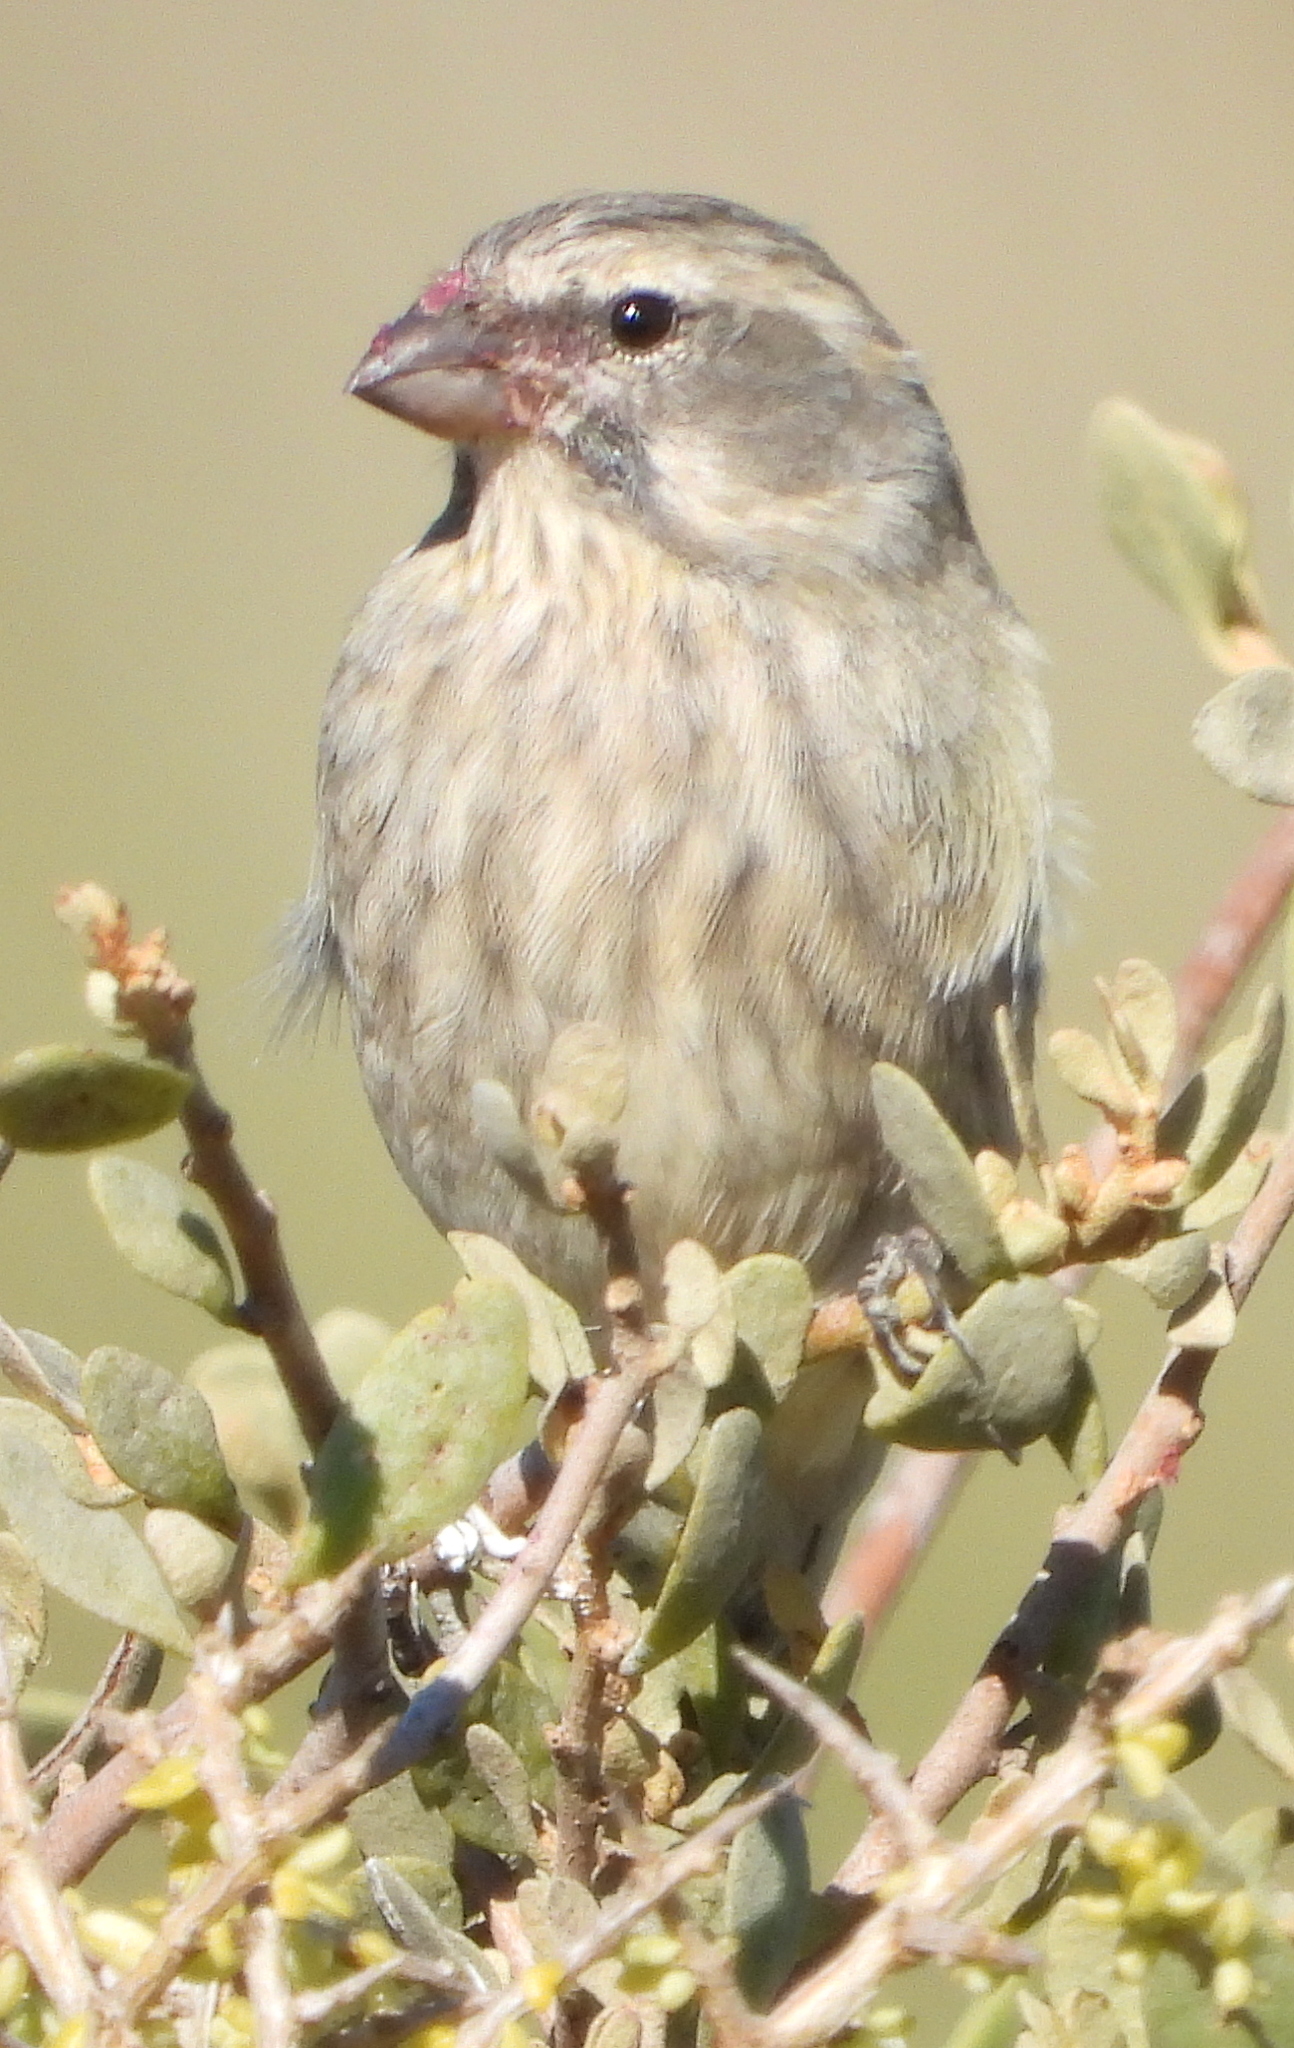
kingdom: Animalia
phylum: Chordata
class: Aves
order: Passeriformes
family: Fringillidae
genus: Crithagra
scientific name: Crithagra flaviventris
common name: Yellow canary
